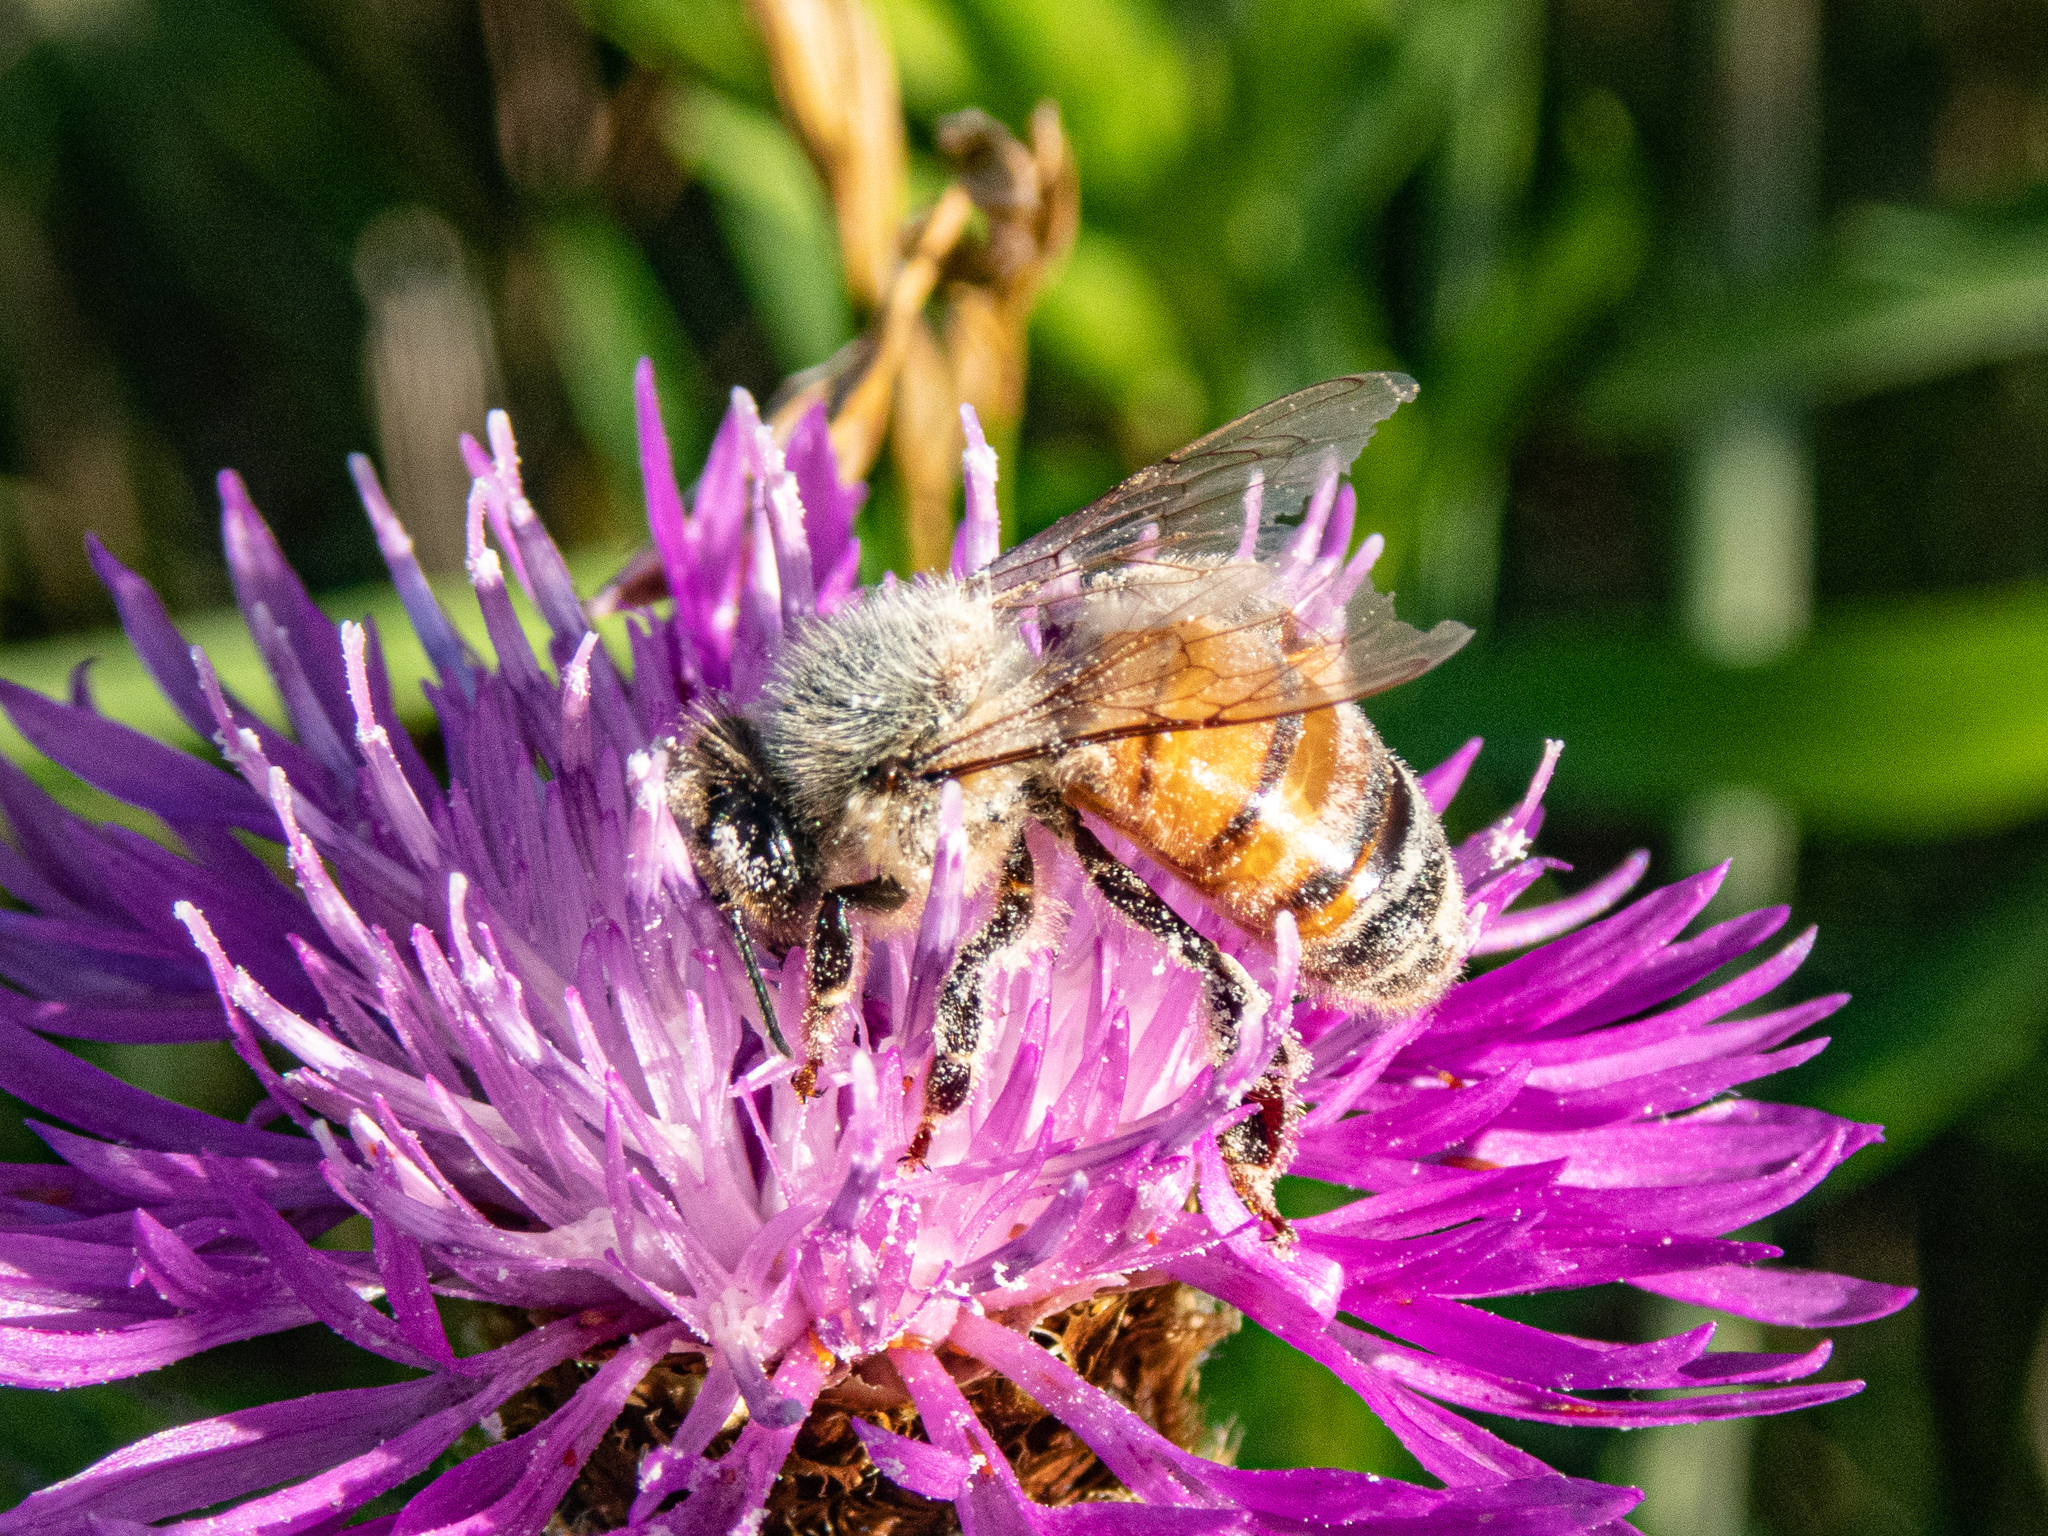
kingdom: Animalia
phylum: Arthropoda
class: Insecta
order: Hymenoptera
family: Apidae
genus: Apis
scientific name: Apis mellifera
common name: Honey bee
